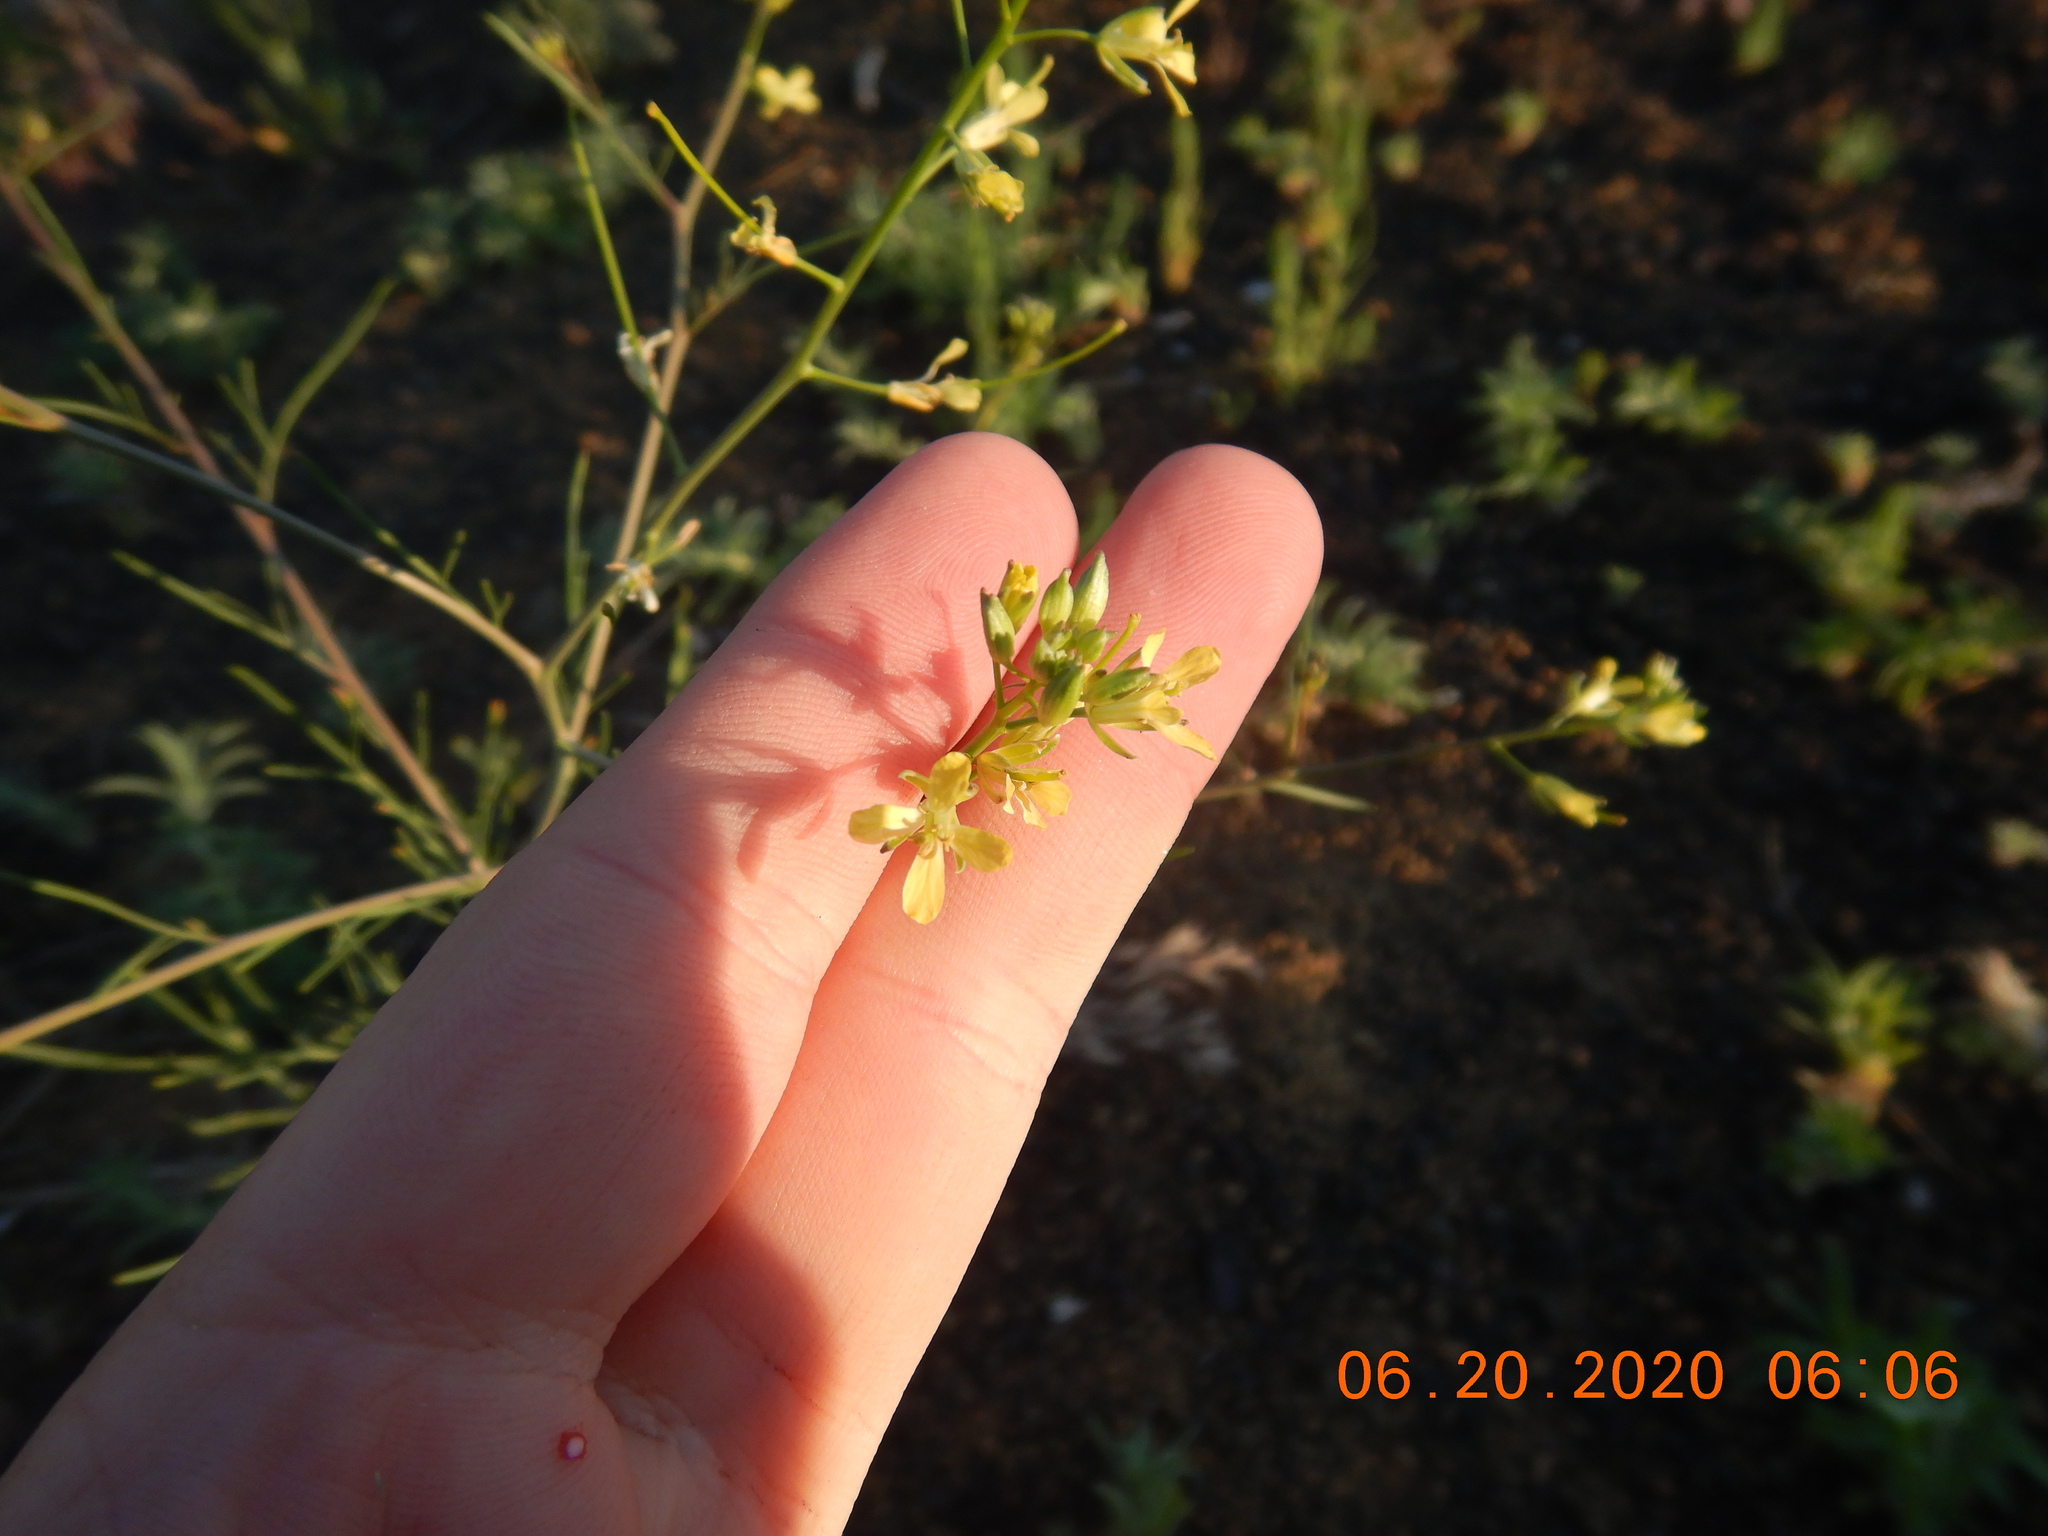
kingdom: Plantae
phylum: Tracheophyta
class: Magnoliopsida
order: Brassicales
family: Brassicaceae
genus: Sisymbrium
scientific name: Sisymbrium altissimum
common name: Tall rocket
